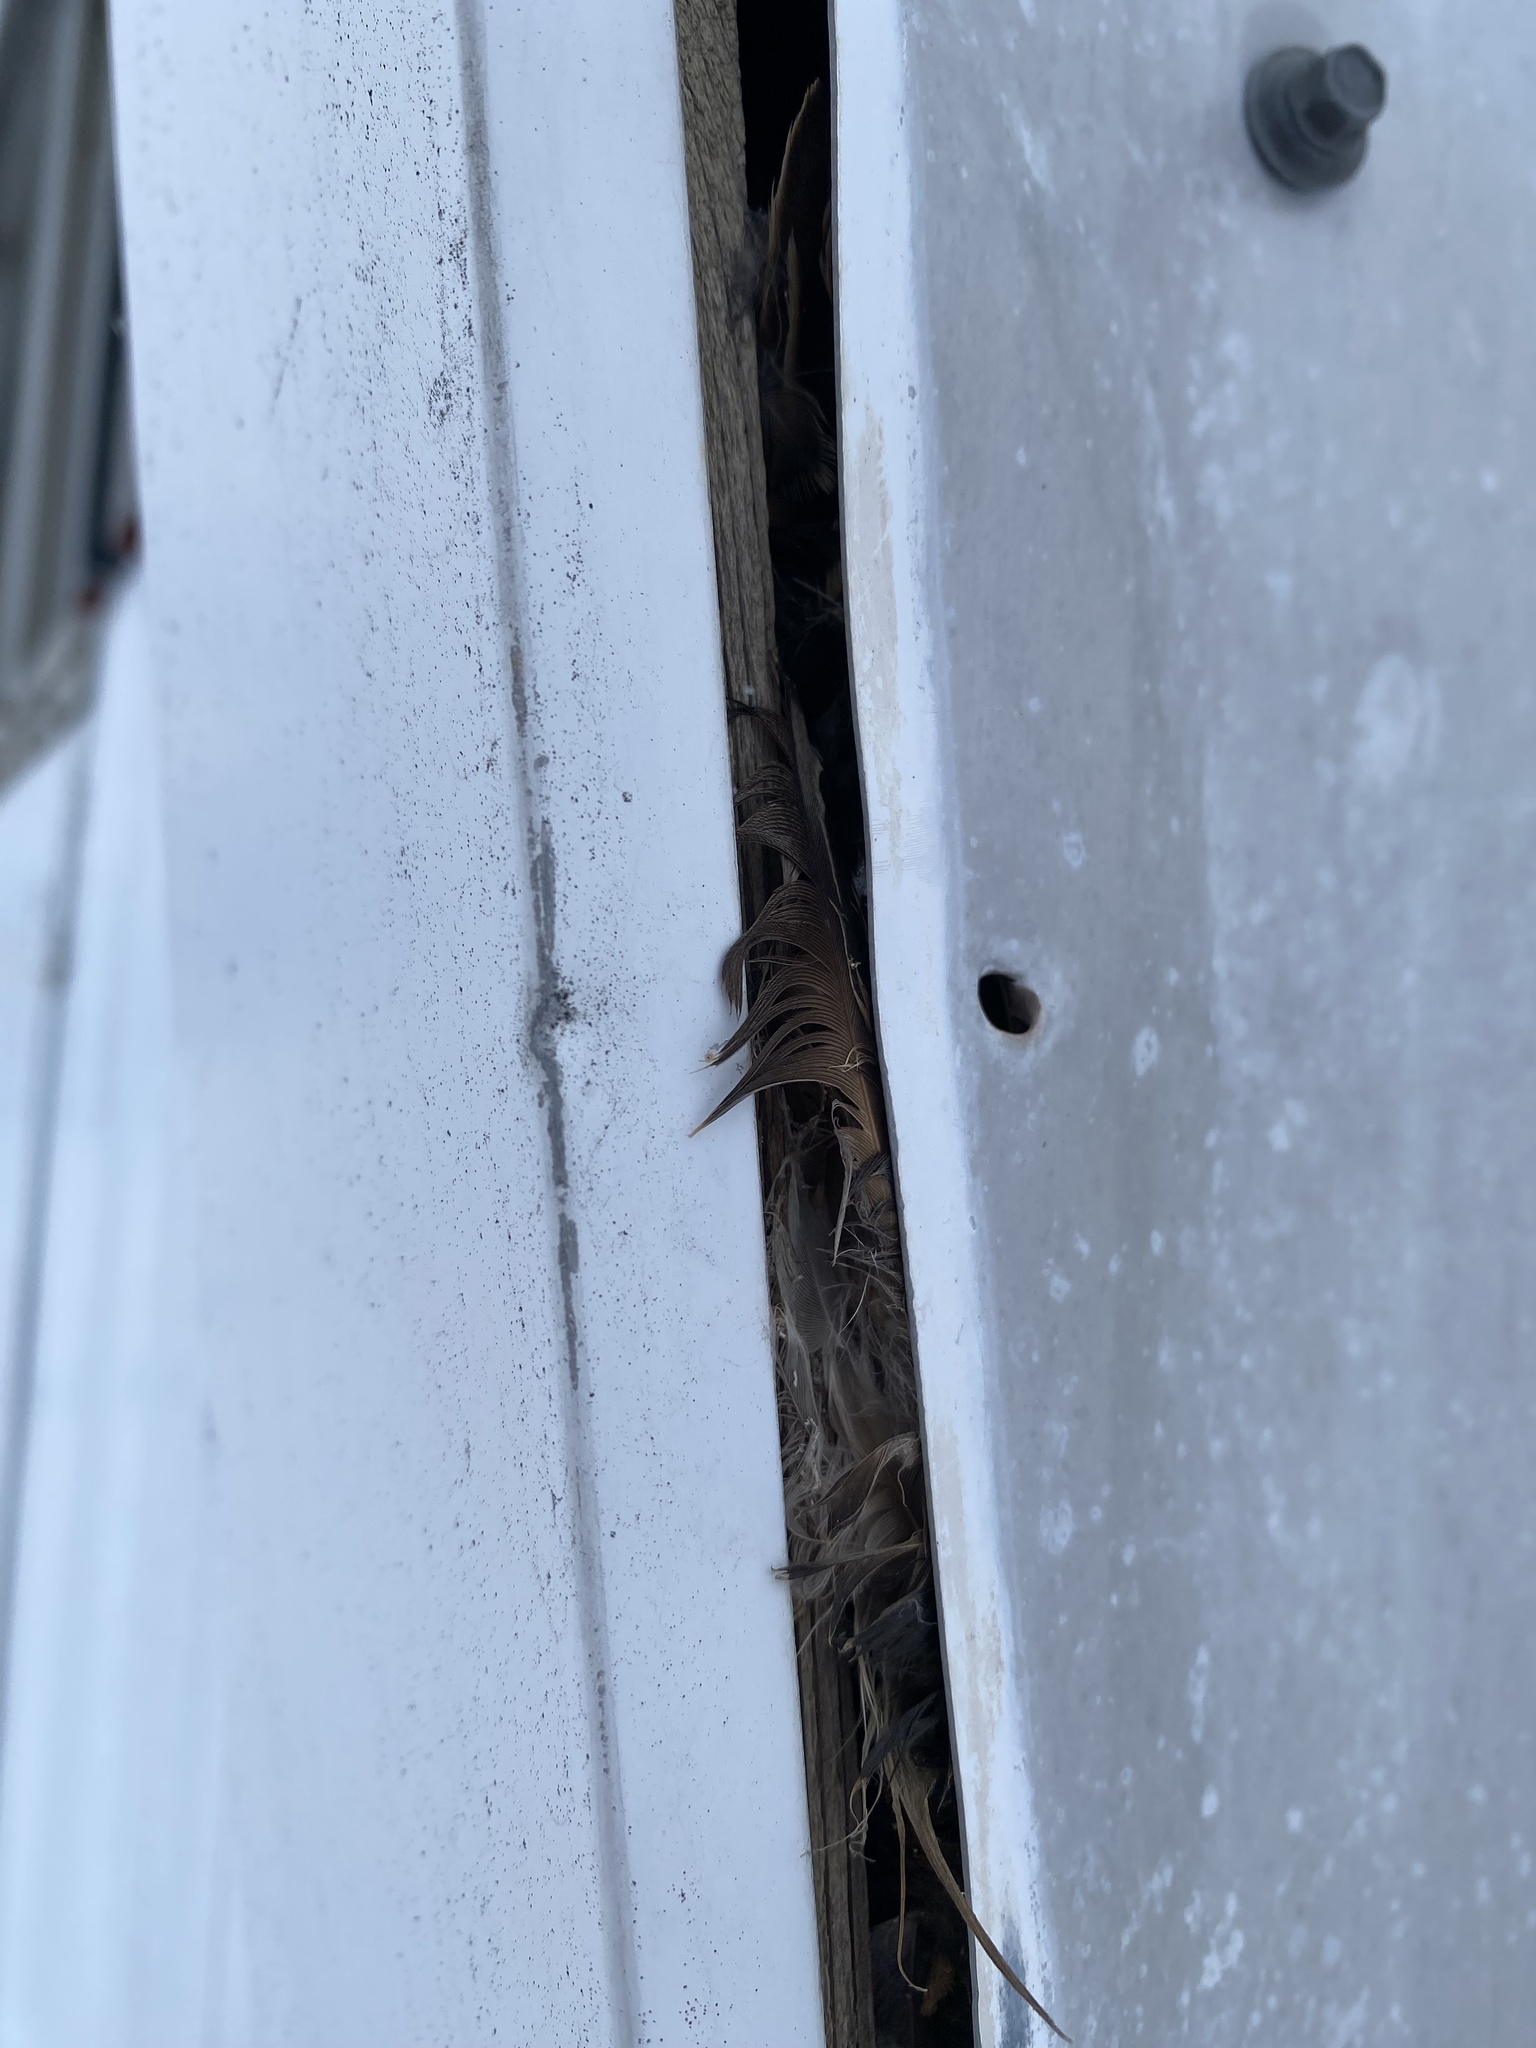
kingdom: Animalia
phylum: Chordata
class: Aves
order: Passeriformes
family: Sturnidae
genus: Sturnus
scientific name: Sturnus vulgaris
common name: Common starling
